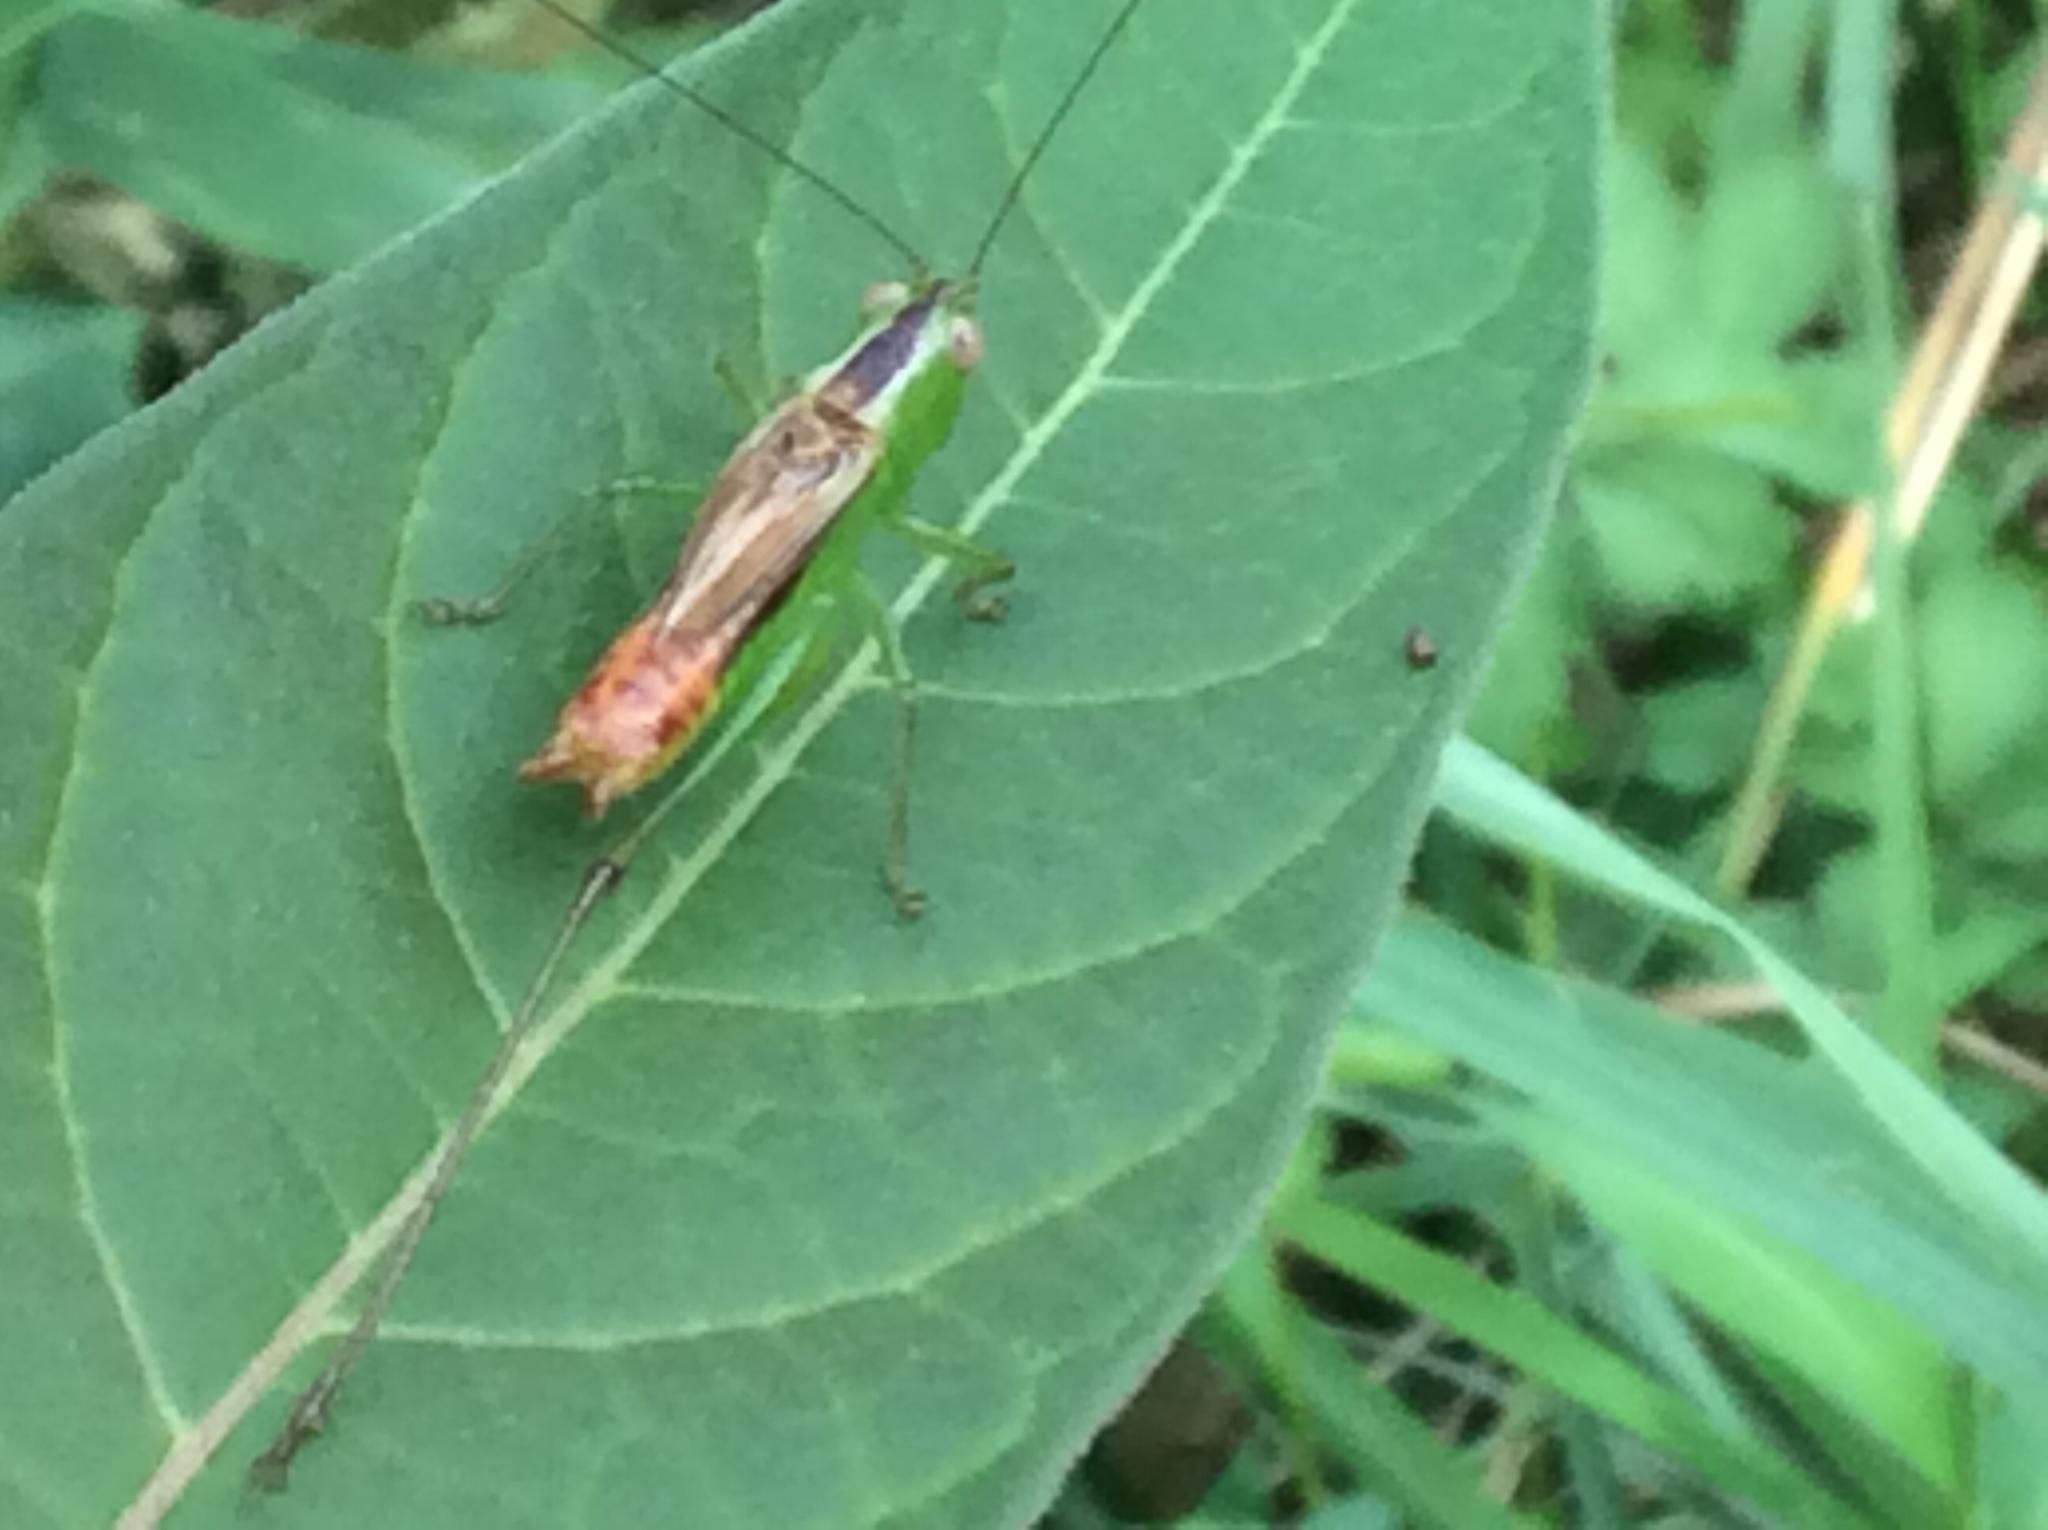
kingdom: Animalia
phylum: Arthropoda
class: Insecta
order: Orthoptera
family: Tettigoniidae
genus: Conocephalus
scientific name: Conocephalus brevipennis
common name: Short-winged meadow katydid
